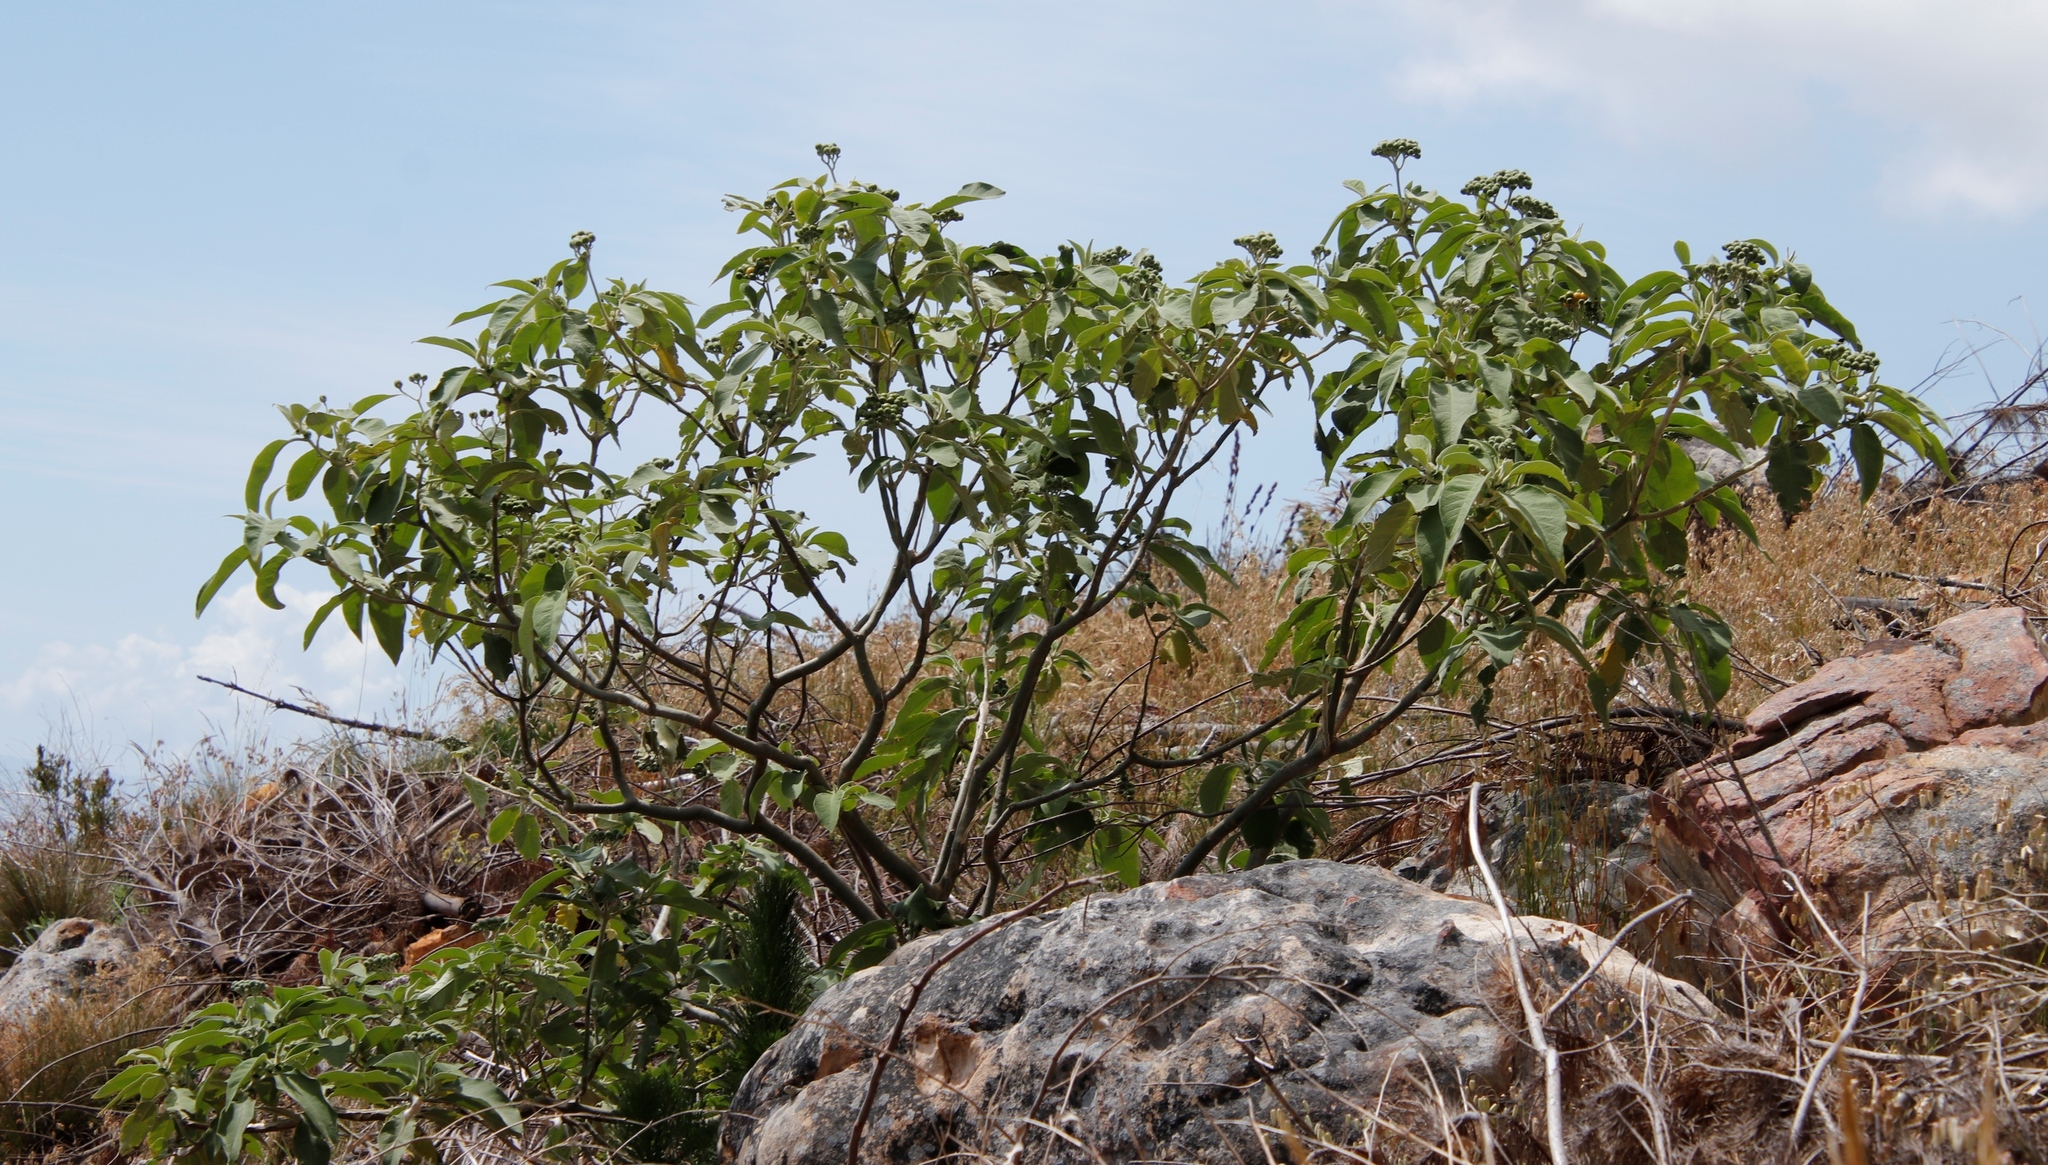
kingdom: Plantae
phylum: Tracheophyta
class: Magnoliopsida
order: Solanales
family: Solanaceae
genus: Solanum
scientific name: Solanum mauritianum
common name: Earleaf nightshade
